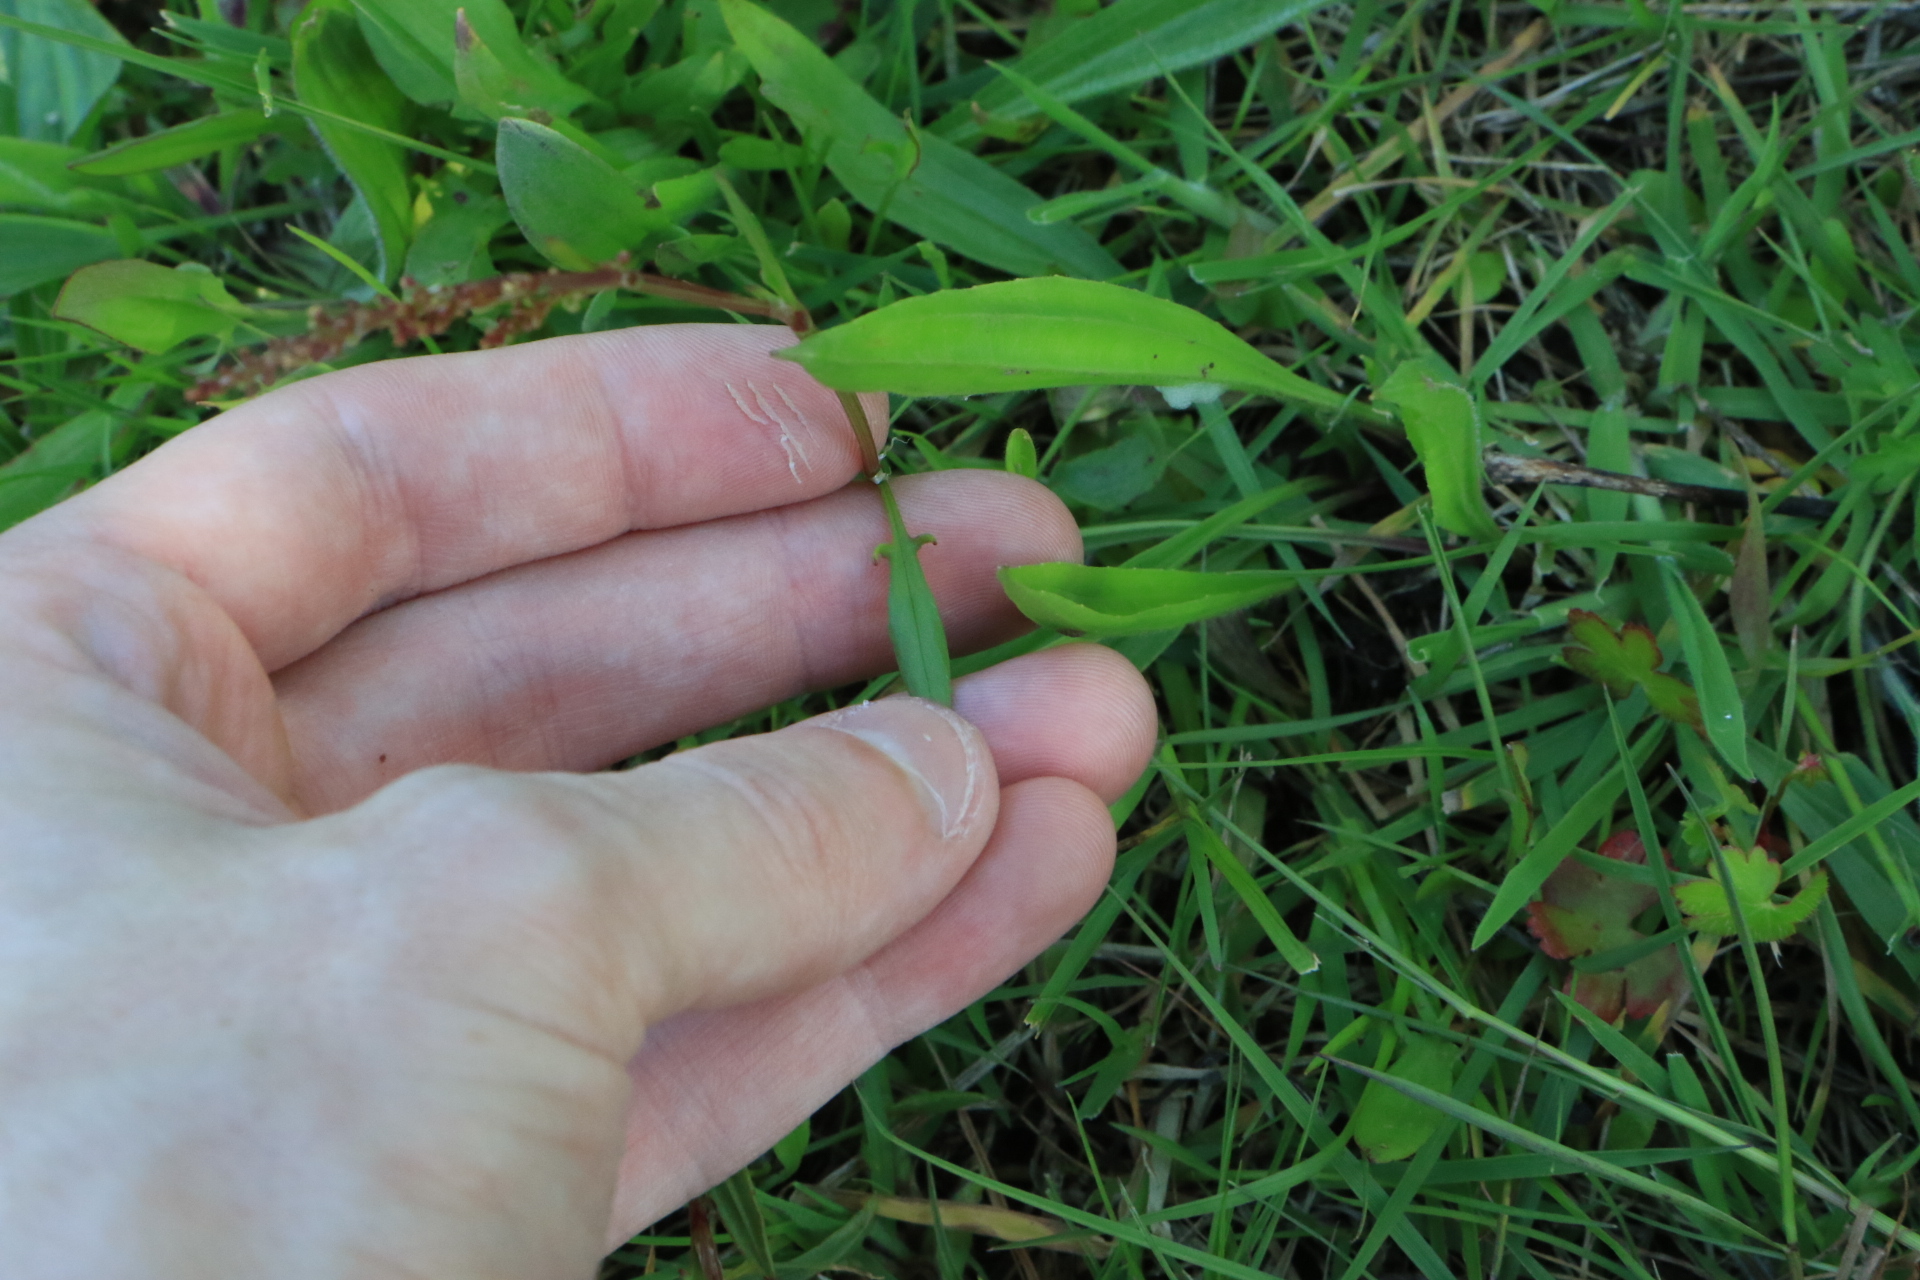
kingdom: Plantae
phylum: Tracheophyta
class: Magnoliopsida
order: Caryophyllales
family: Polygonaceae
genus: Rumex
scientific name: Rumex acetosella
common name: Common sheep sorrel
